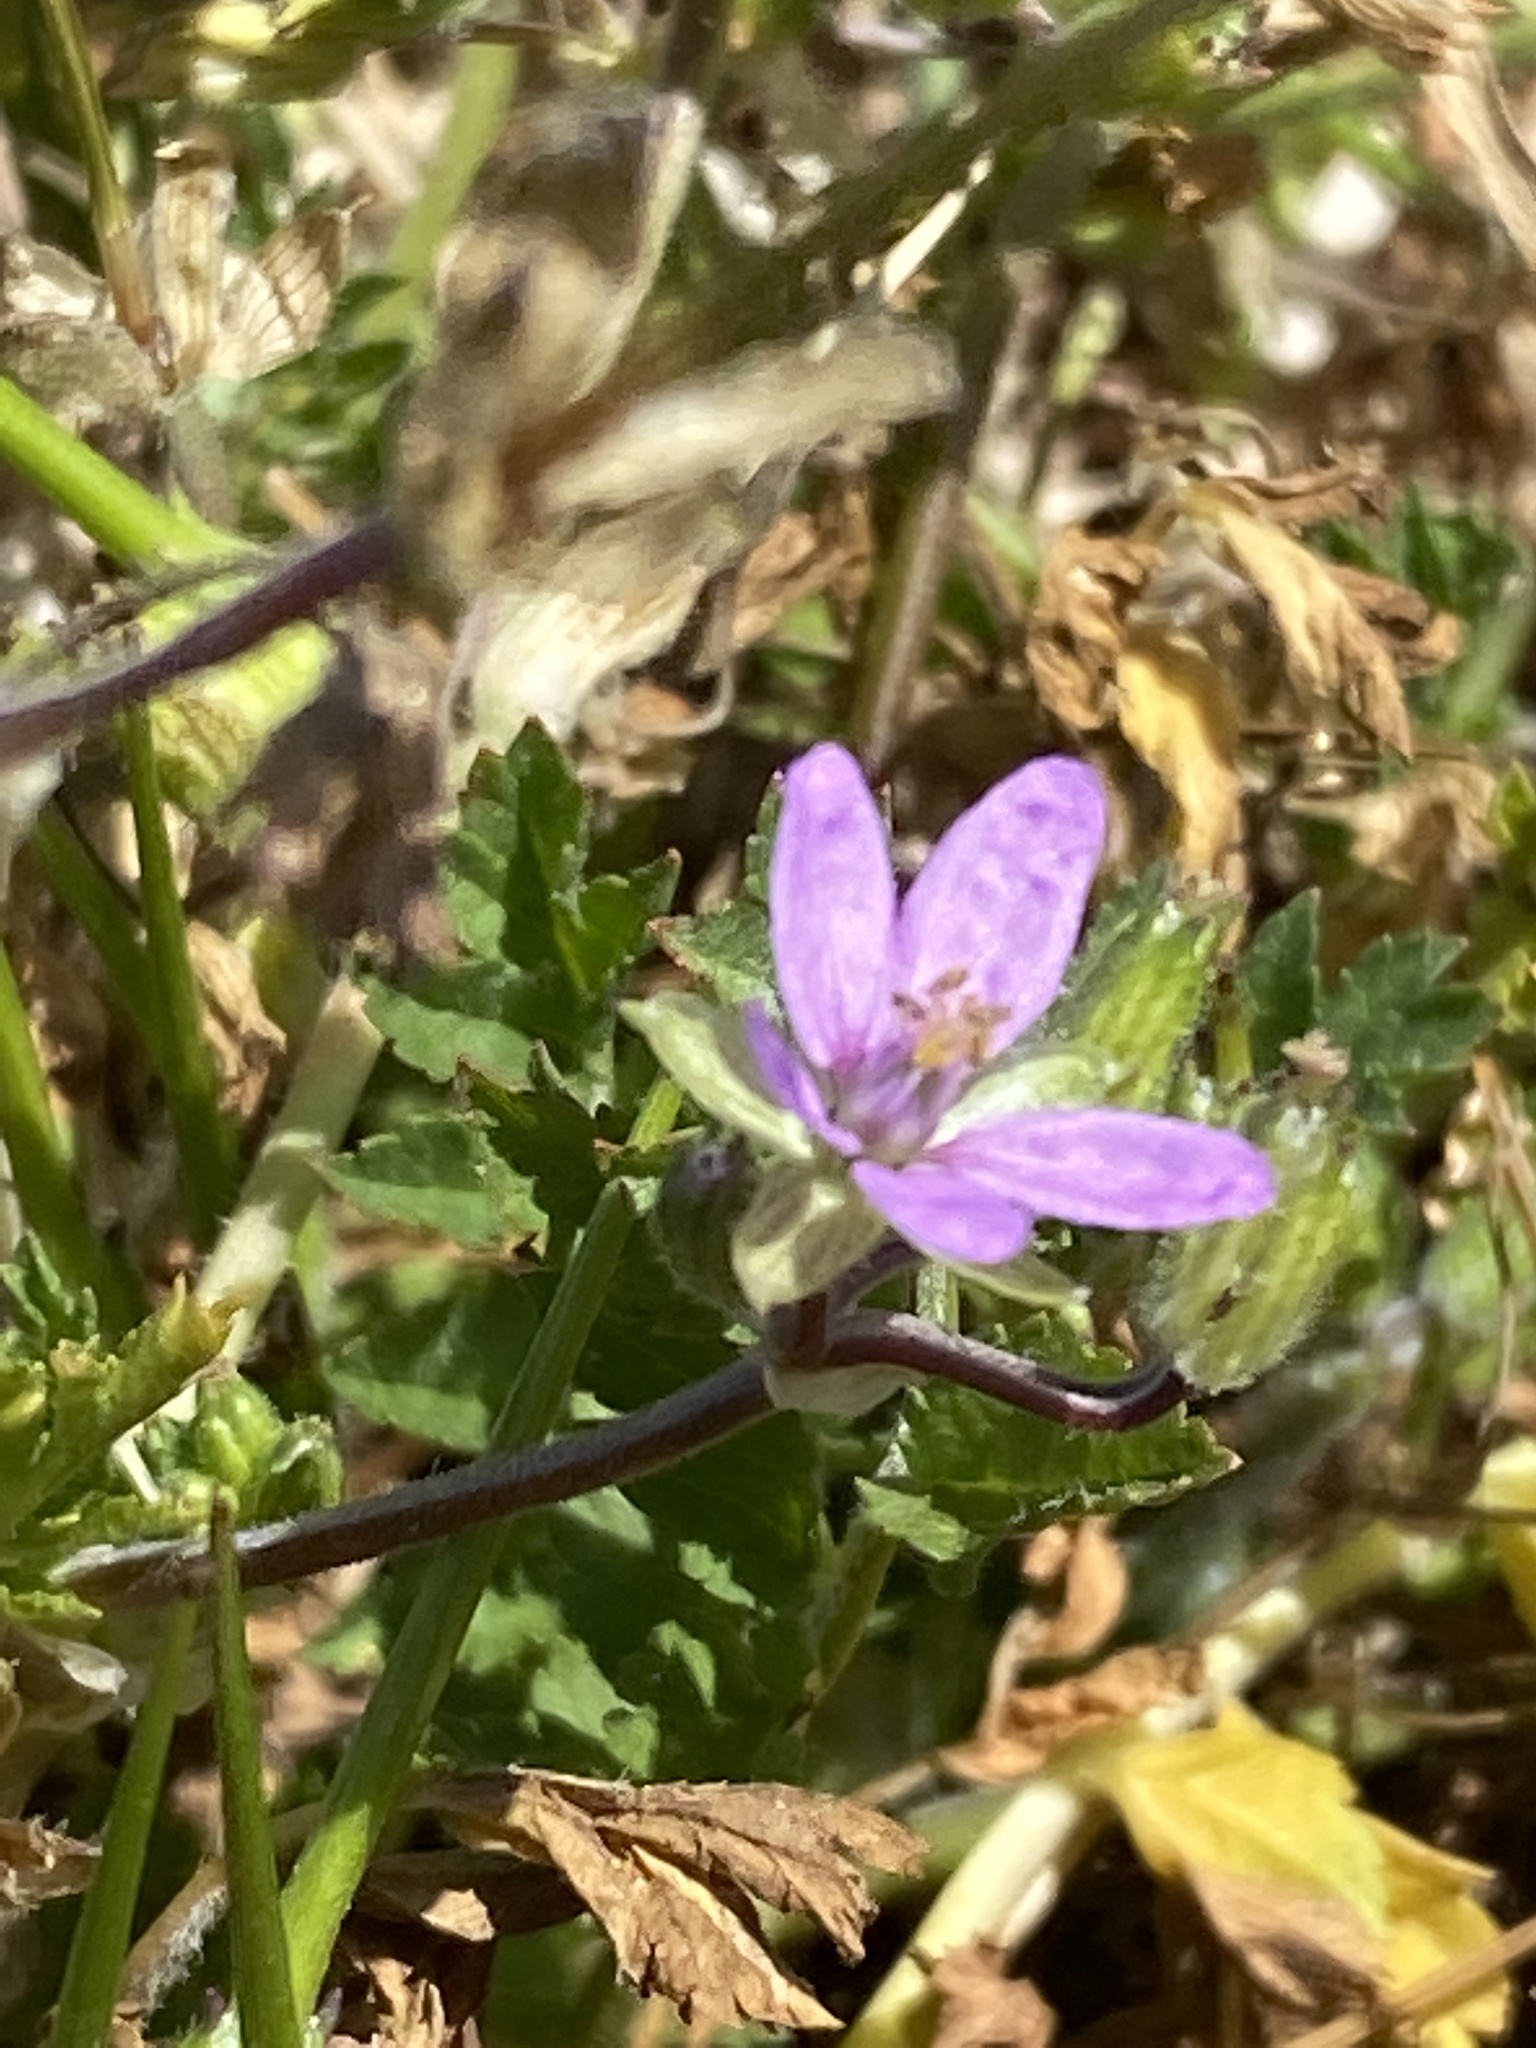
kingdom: Plantae
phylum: Tracheophyta
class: Magnoliopsida
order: Geraniales
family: Geraniaceae
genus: Erodium
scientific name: Erodium moschatum
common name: Musk stork's-bill
